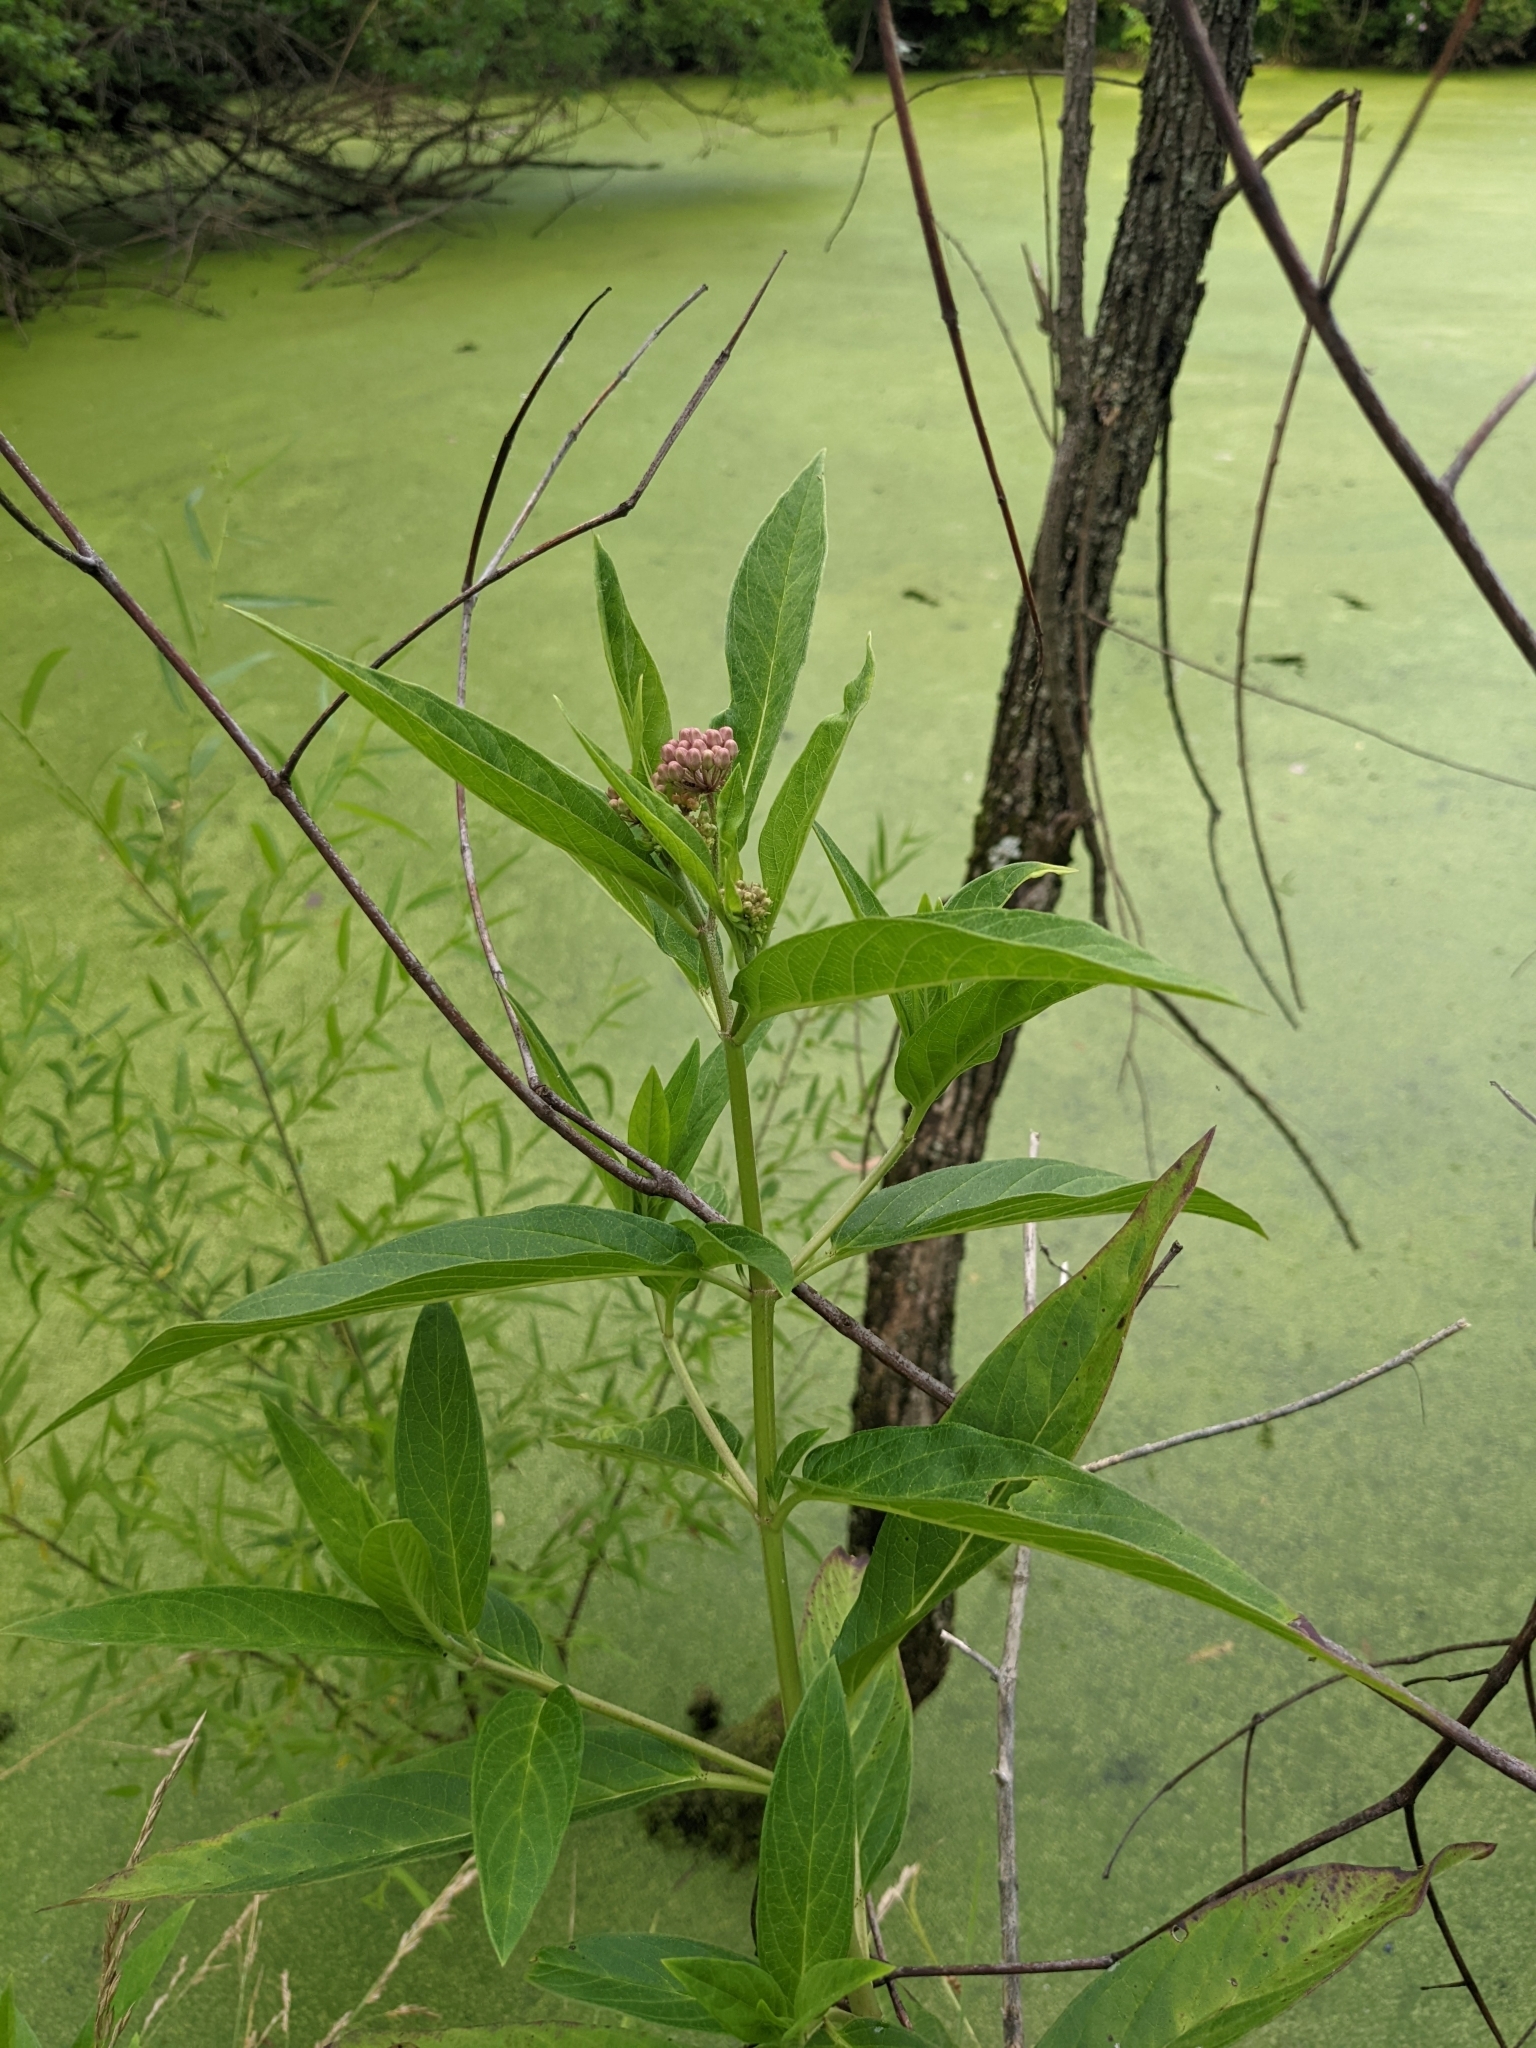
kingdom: Plantae
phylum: Tracheophyta
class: Magnoliopsida
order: Gentianales
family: Apocynaceae
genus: Asclepias
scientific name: Asclepias incarnata
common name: Swamp milkweed
